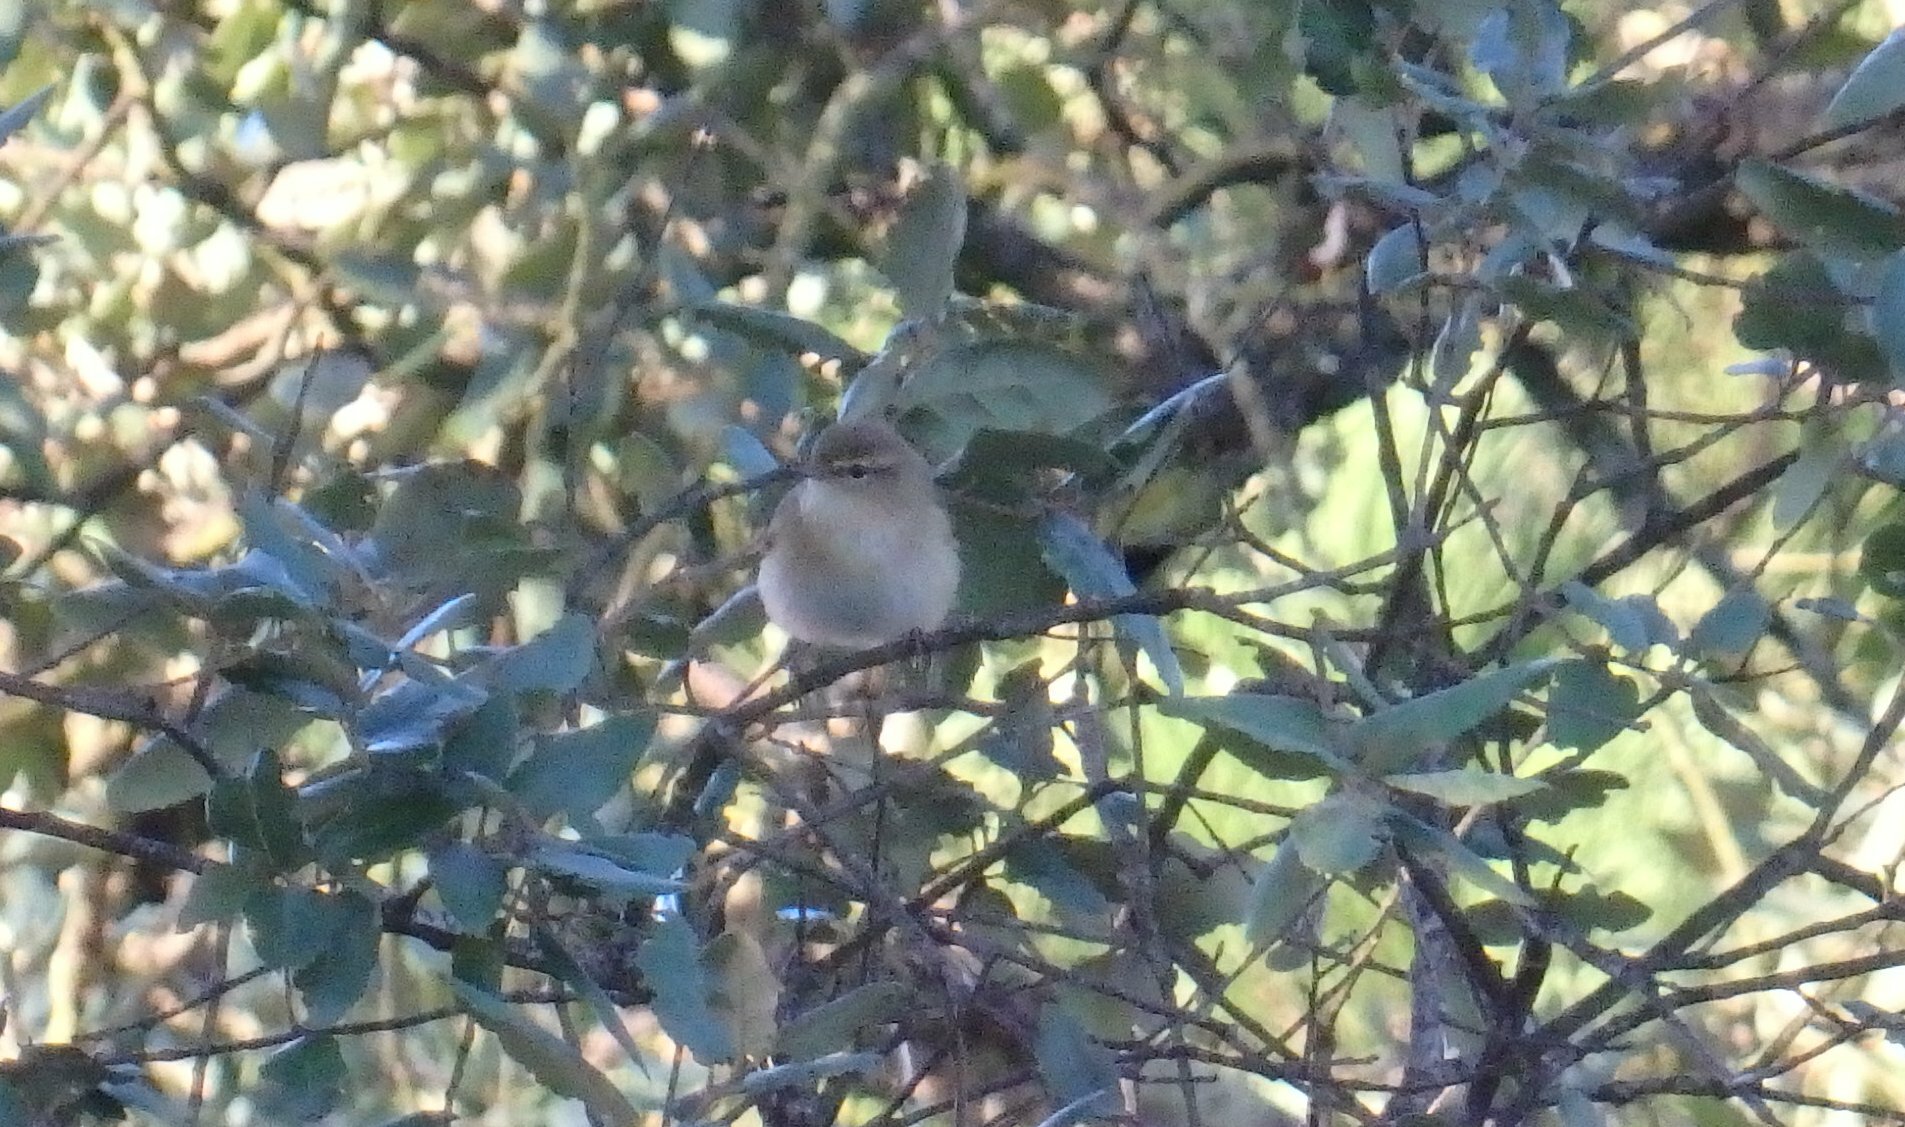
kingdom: Animalia
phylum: Chordata
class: Aves
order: Passeriformes
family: Phylloscopidae
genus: Phylloscopus
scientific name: Phylloscopus collybita
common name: Common chiffchaff
